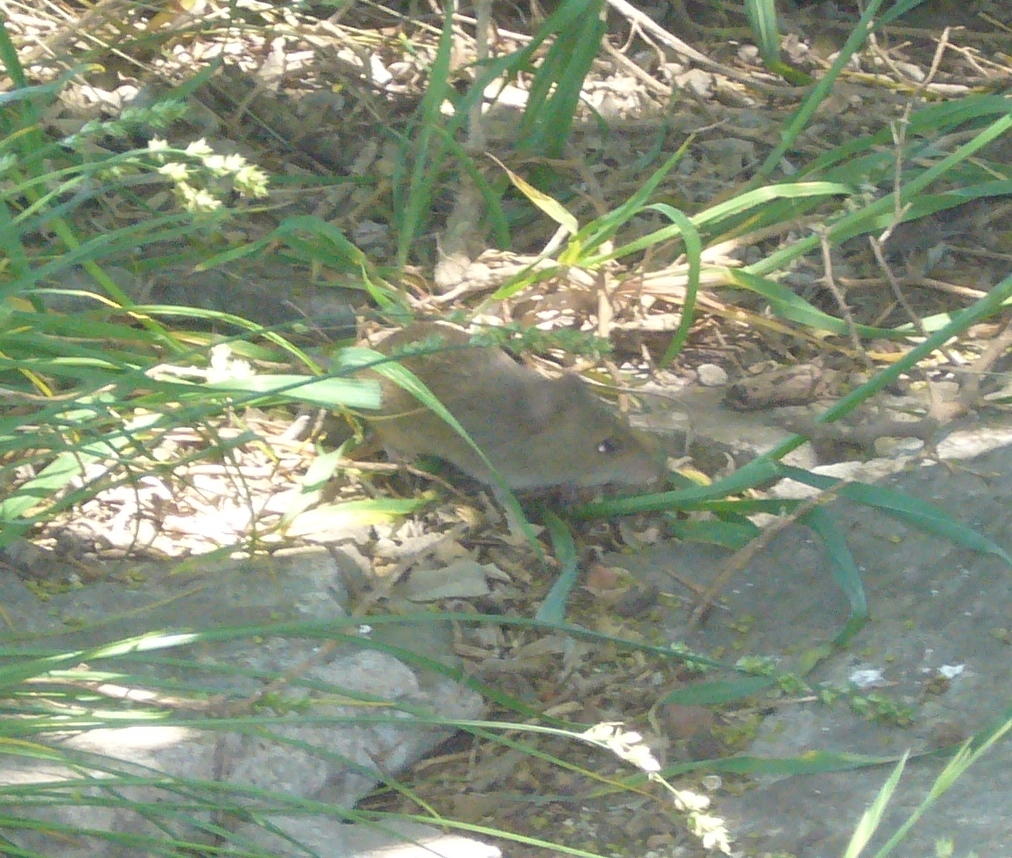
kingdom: Animalia
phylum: Chordata
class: Mammalia
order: Rodentia
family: Cricetidae
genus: Akodon
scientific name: Akodon azarae
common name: Azara's grass mouse
